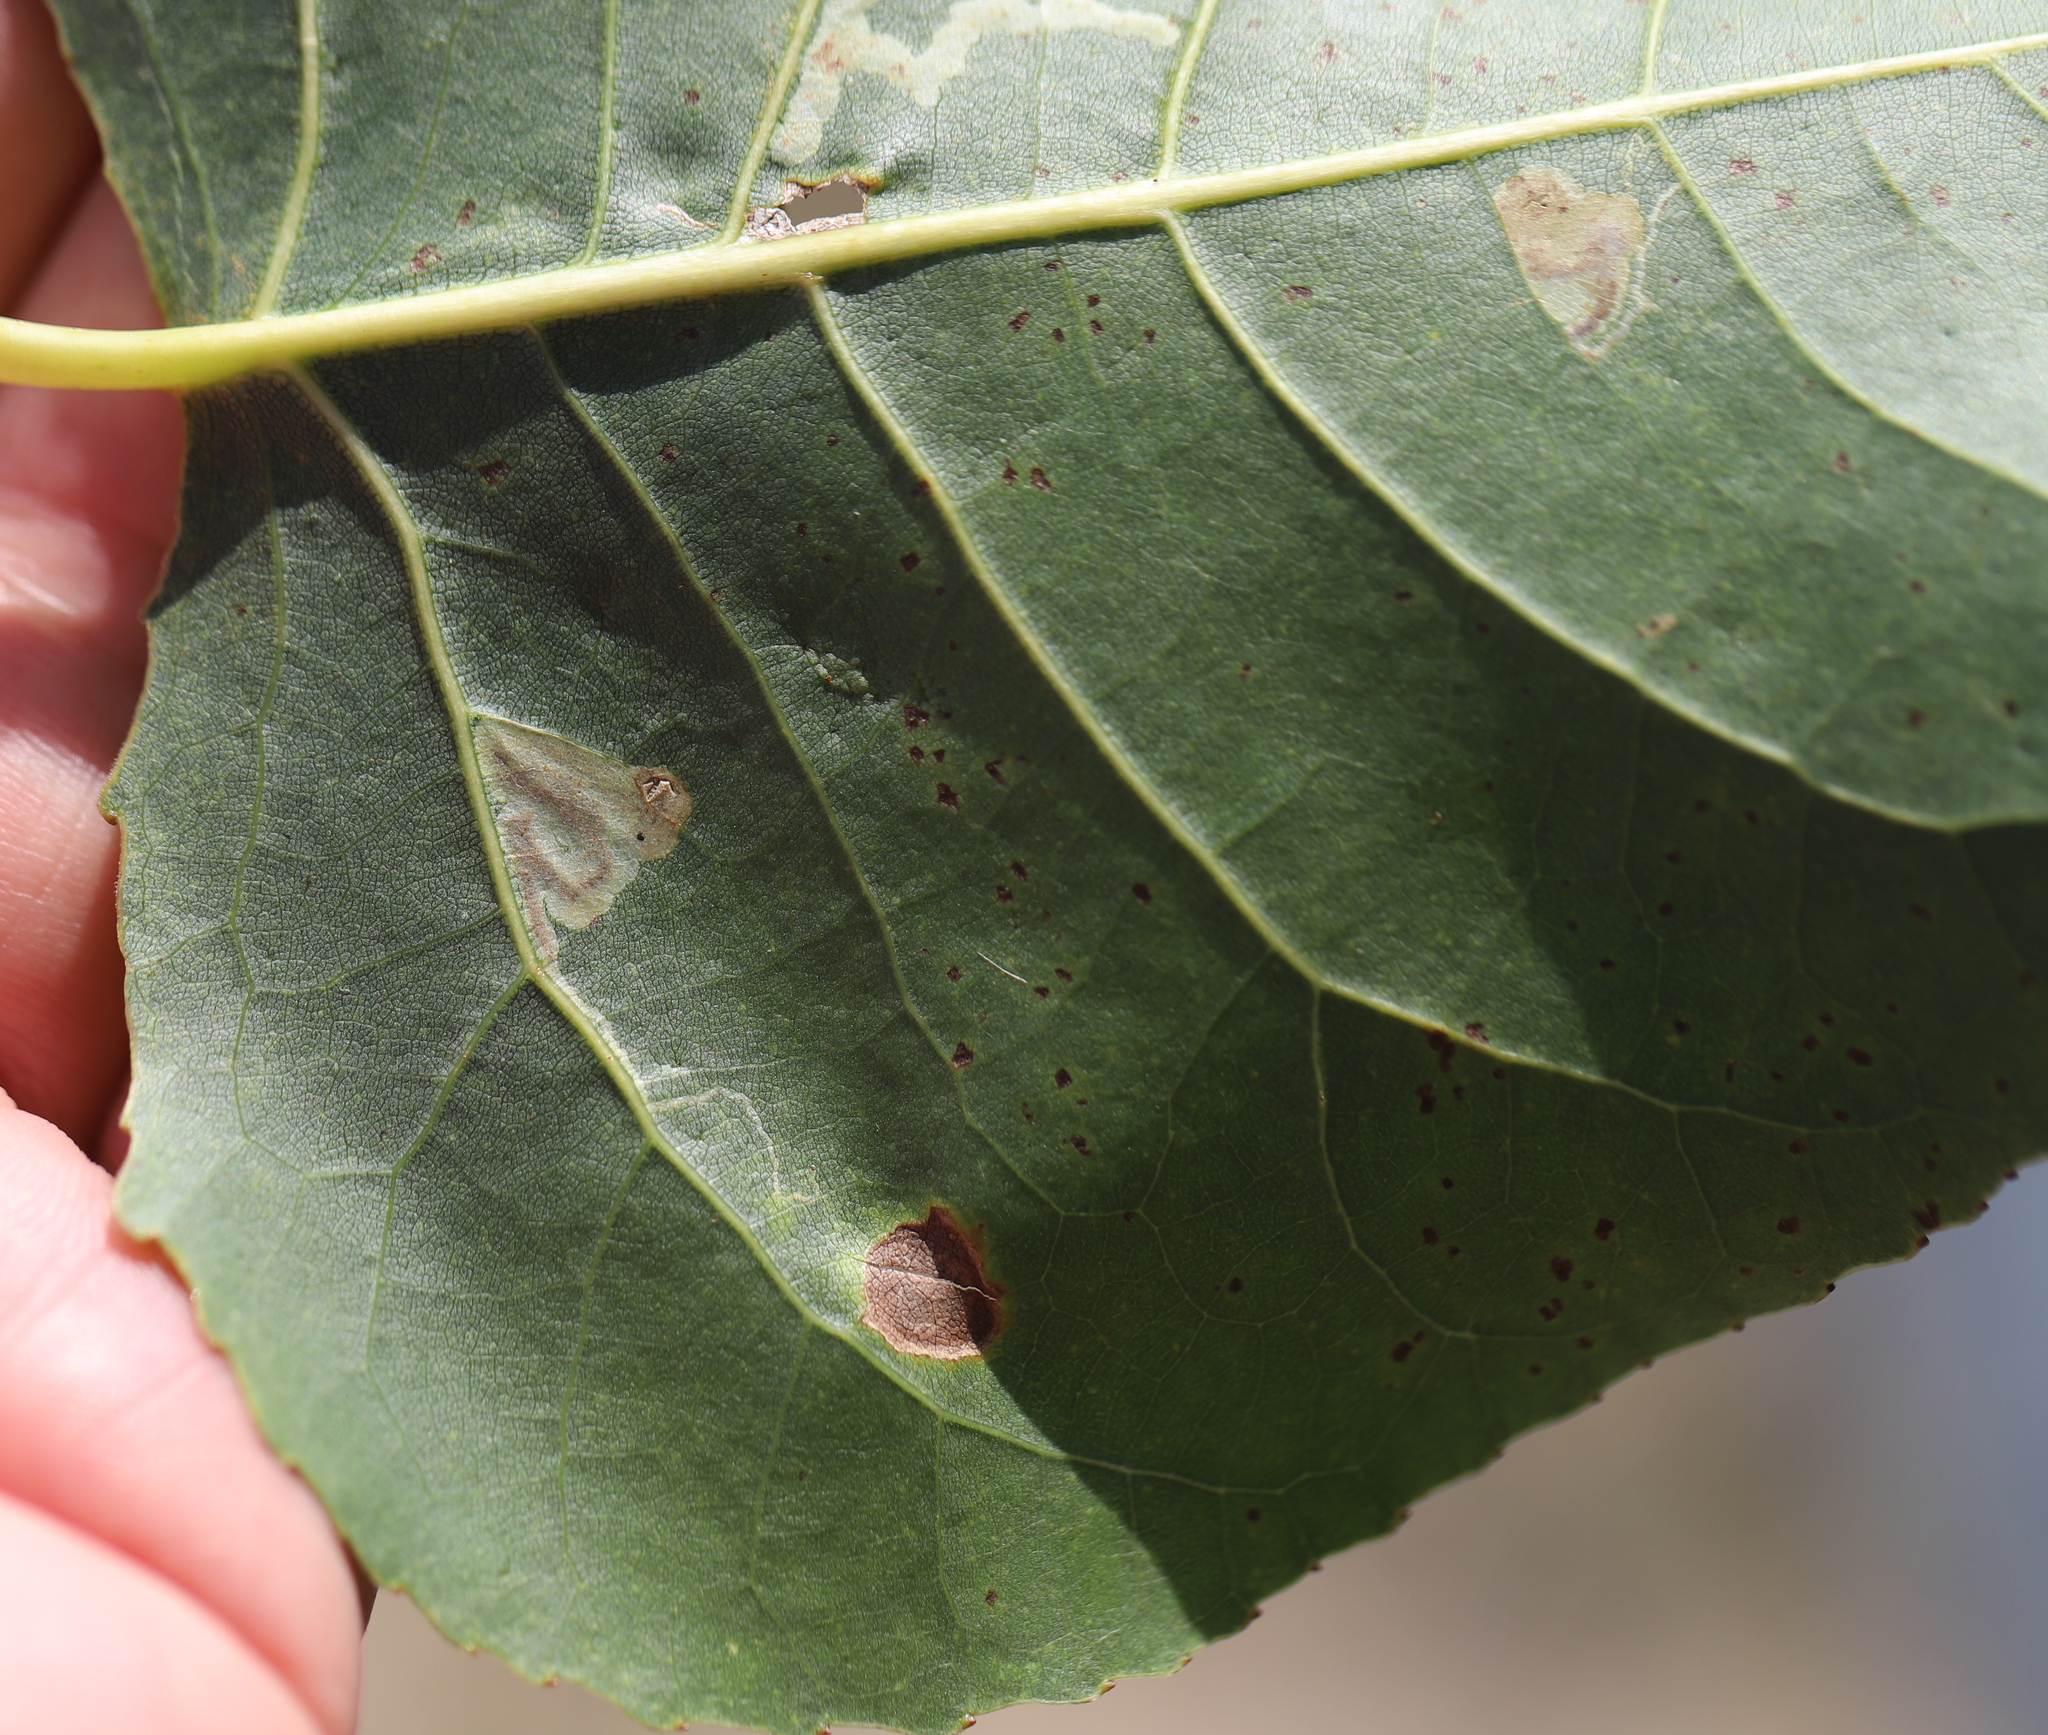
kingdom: Animalia
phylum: Arthropoda
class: Insecta
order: Lepidoptera
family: Nepticulidae
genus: Stigmella
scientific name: Stigmella populetorum
